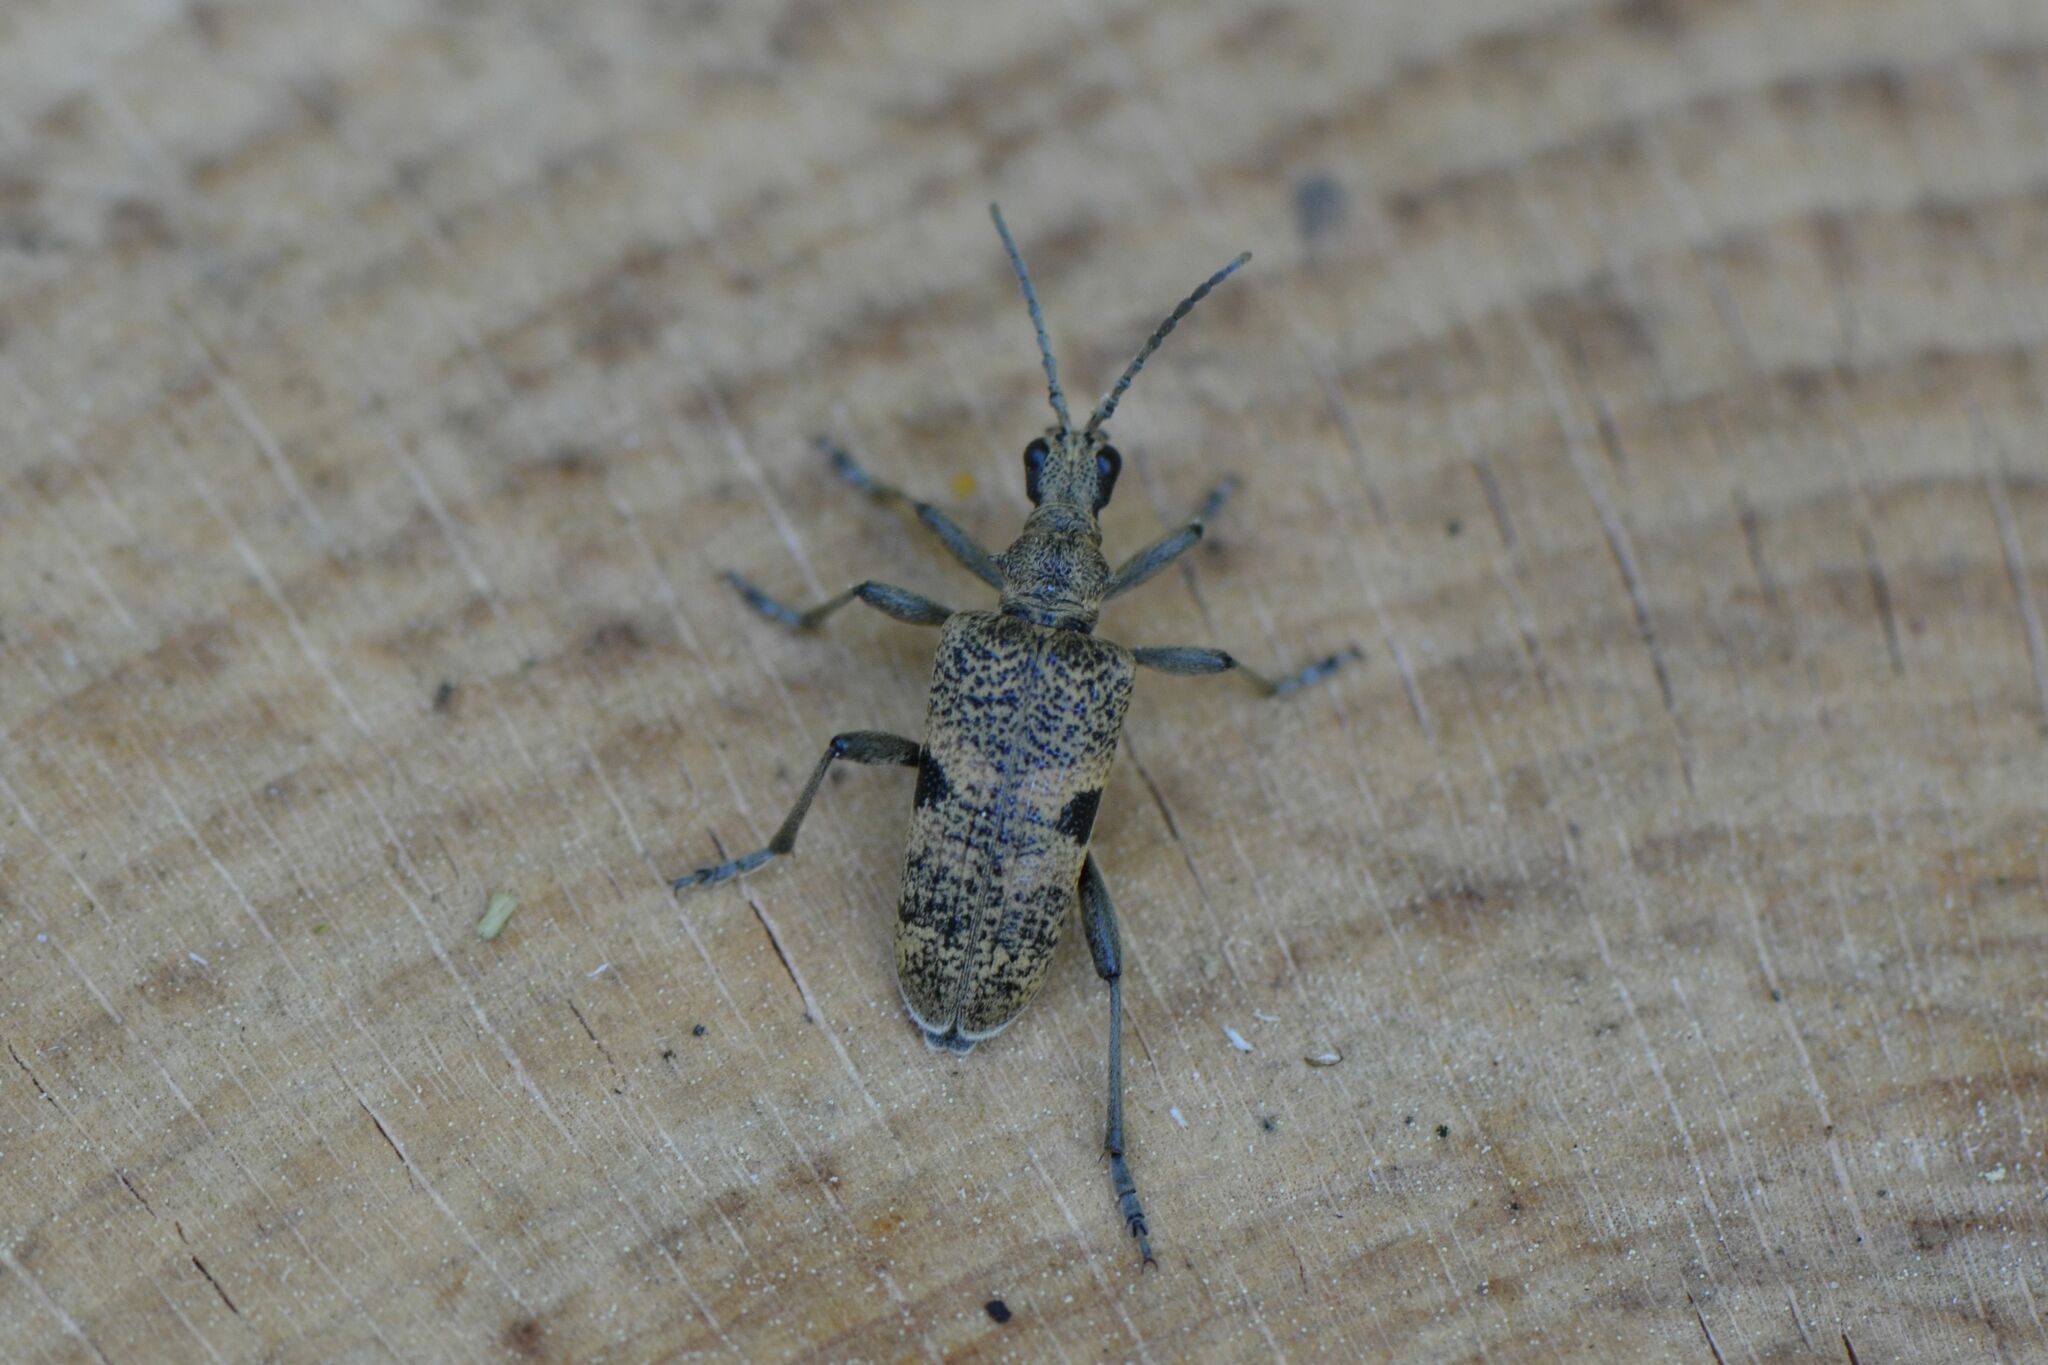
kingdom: Animalia
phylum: Arthropoda
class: Insecta
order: Coleoptera
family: Cerambycidae
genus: Rhagium
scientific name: Rhagium mordax
